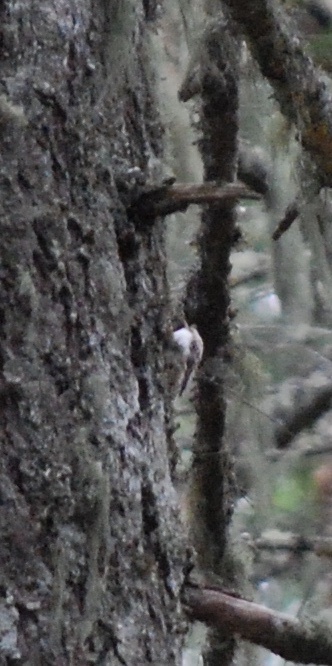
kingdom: Animalia
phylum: Chordata
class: Aves
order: Passeriformes
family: Certhiidae
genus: Certhia
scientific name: Certhia americana
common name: Brown creeper
